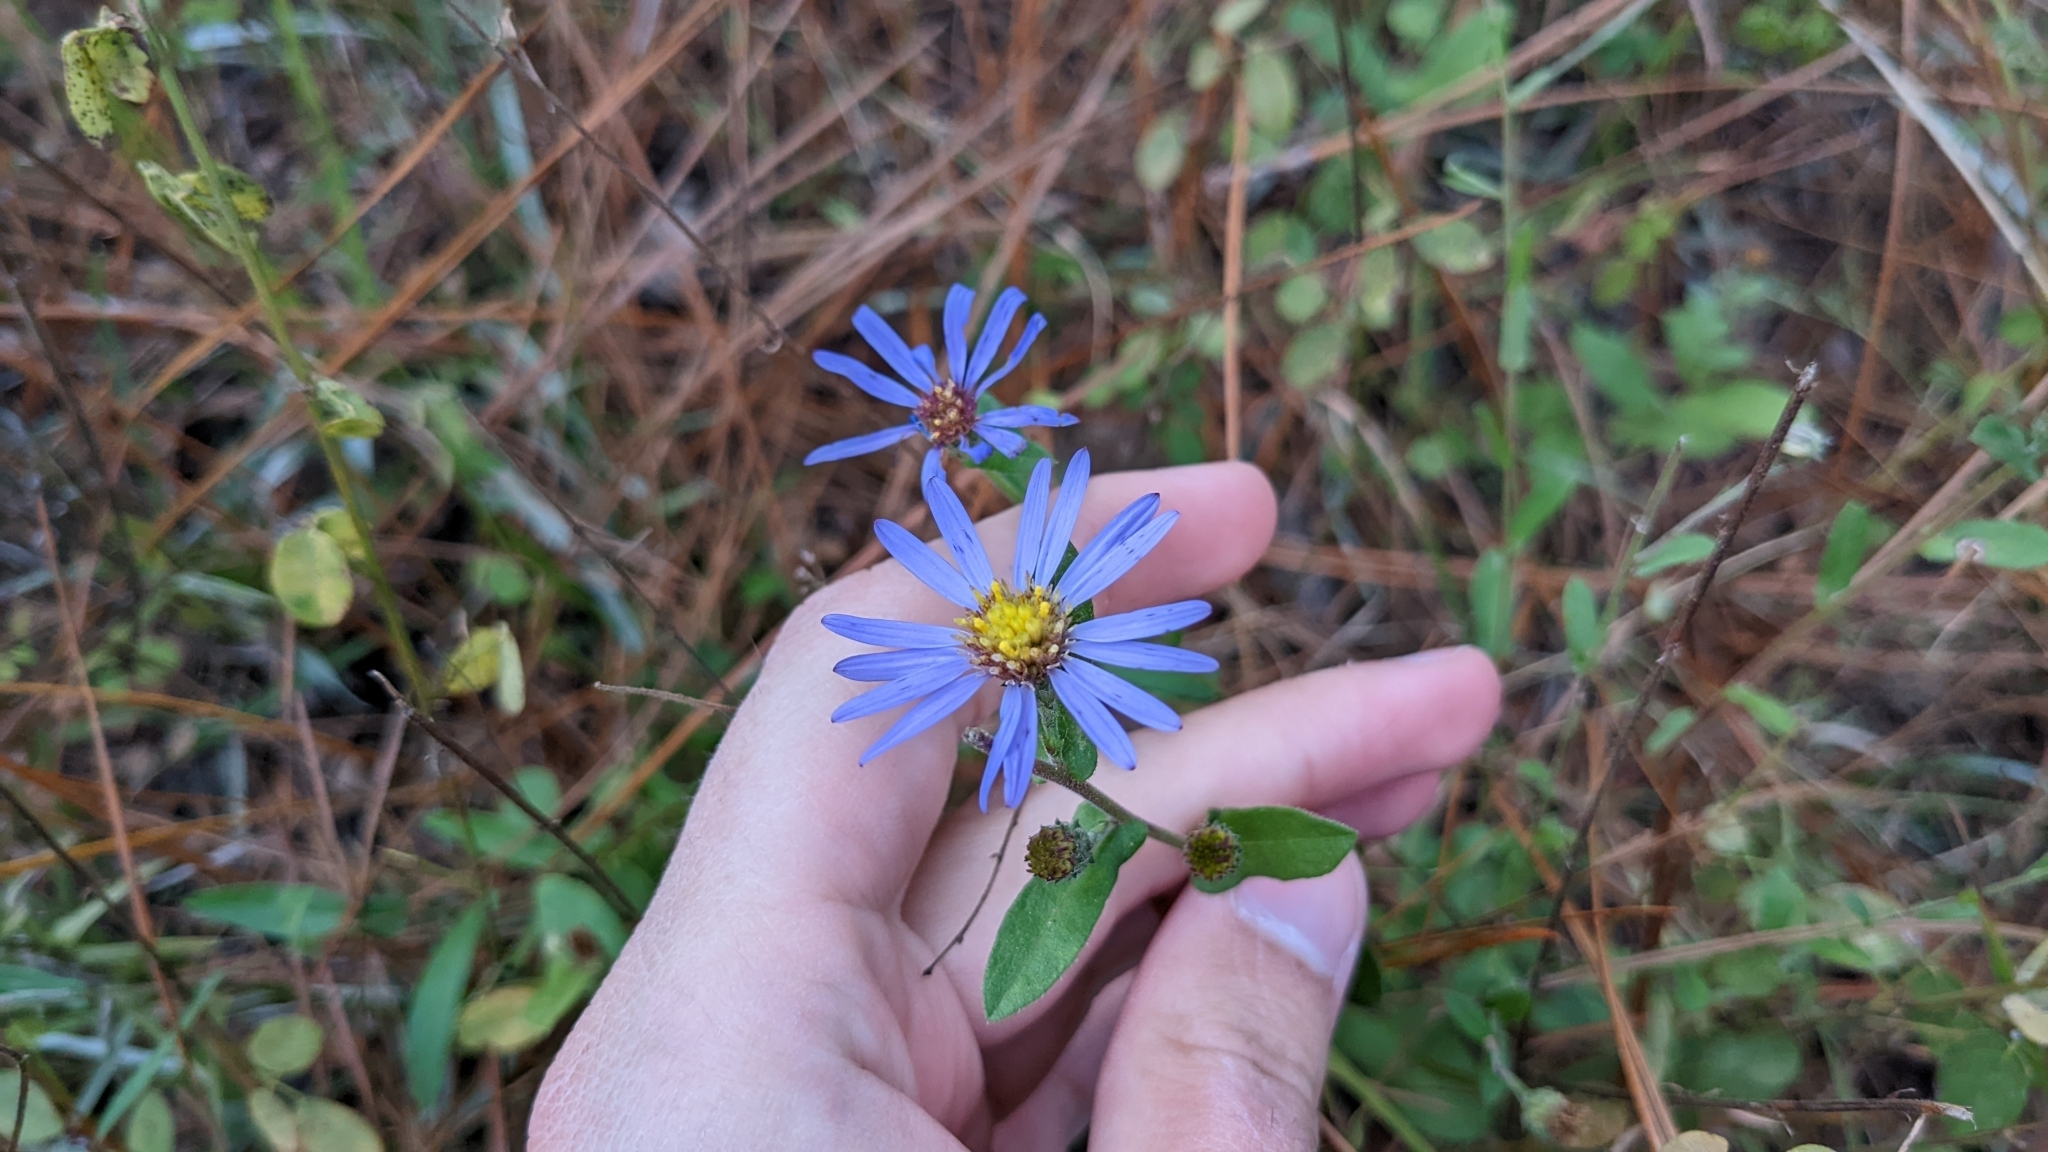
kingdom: Plantae
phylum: Tracheophyta
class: Magnoliopsida
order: Asterales
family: Asteraceae
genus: Symphyotrichum
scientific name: Symphyotrichum patens
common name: Late purple aster
